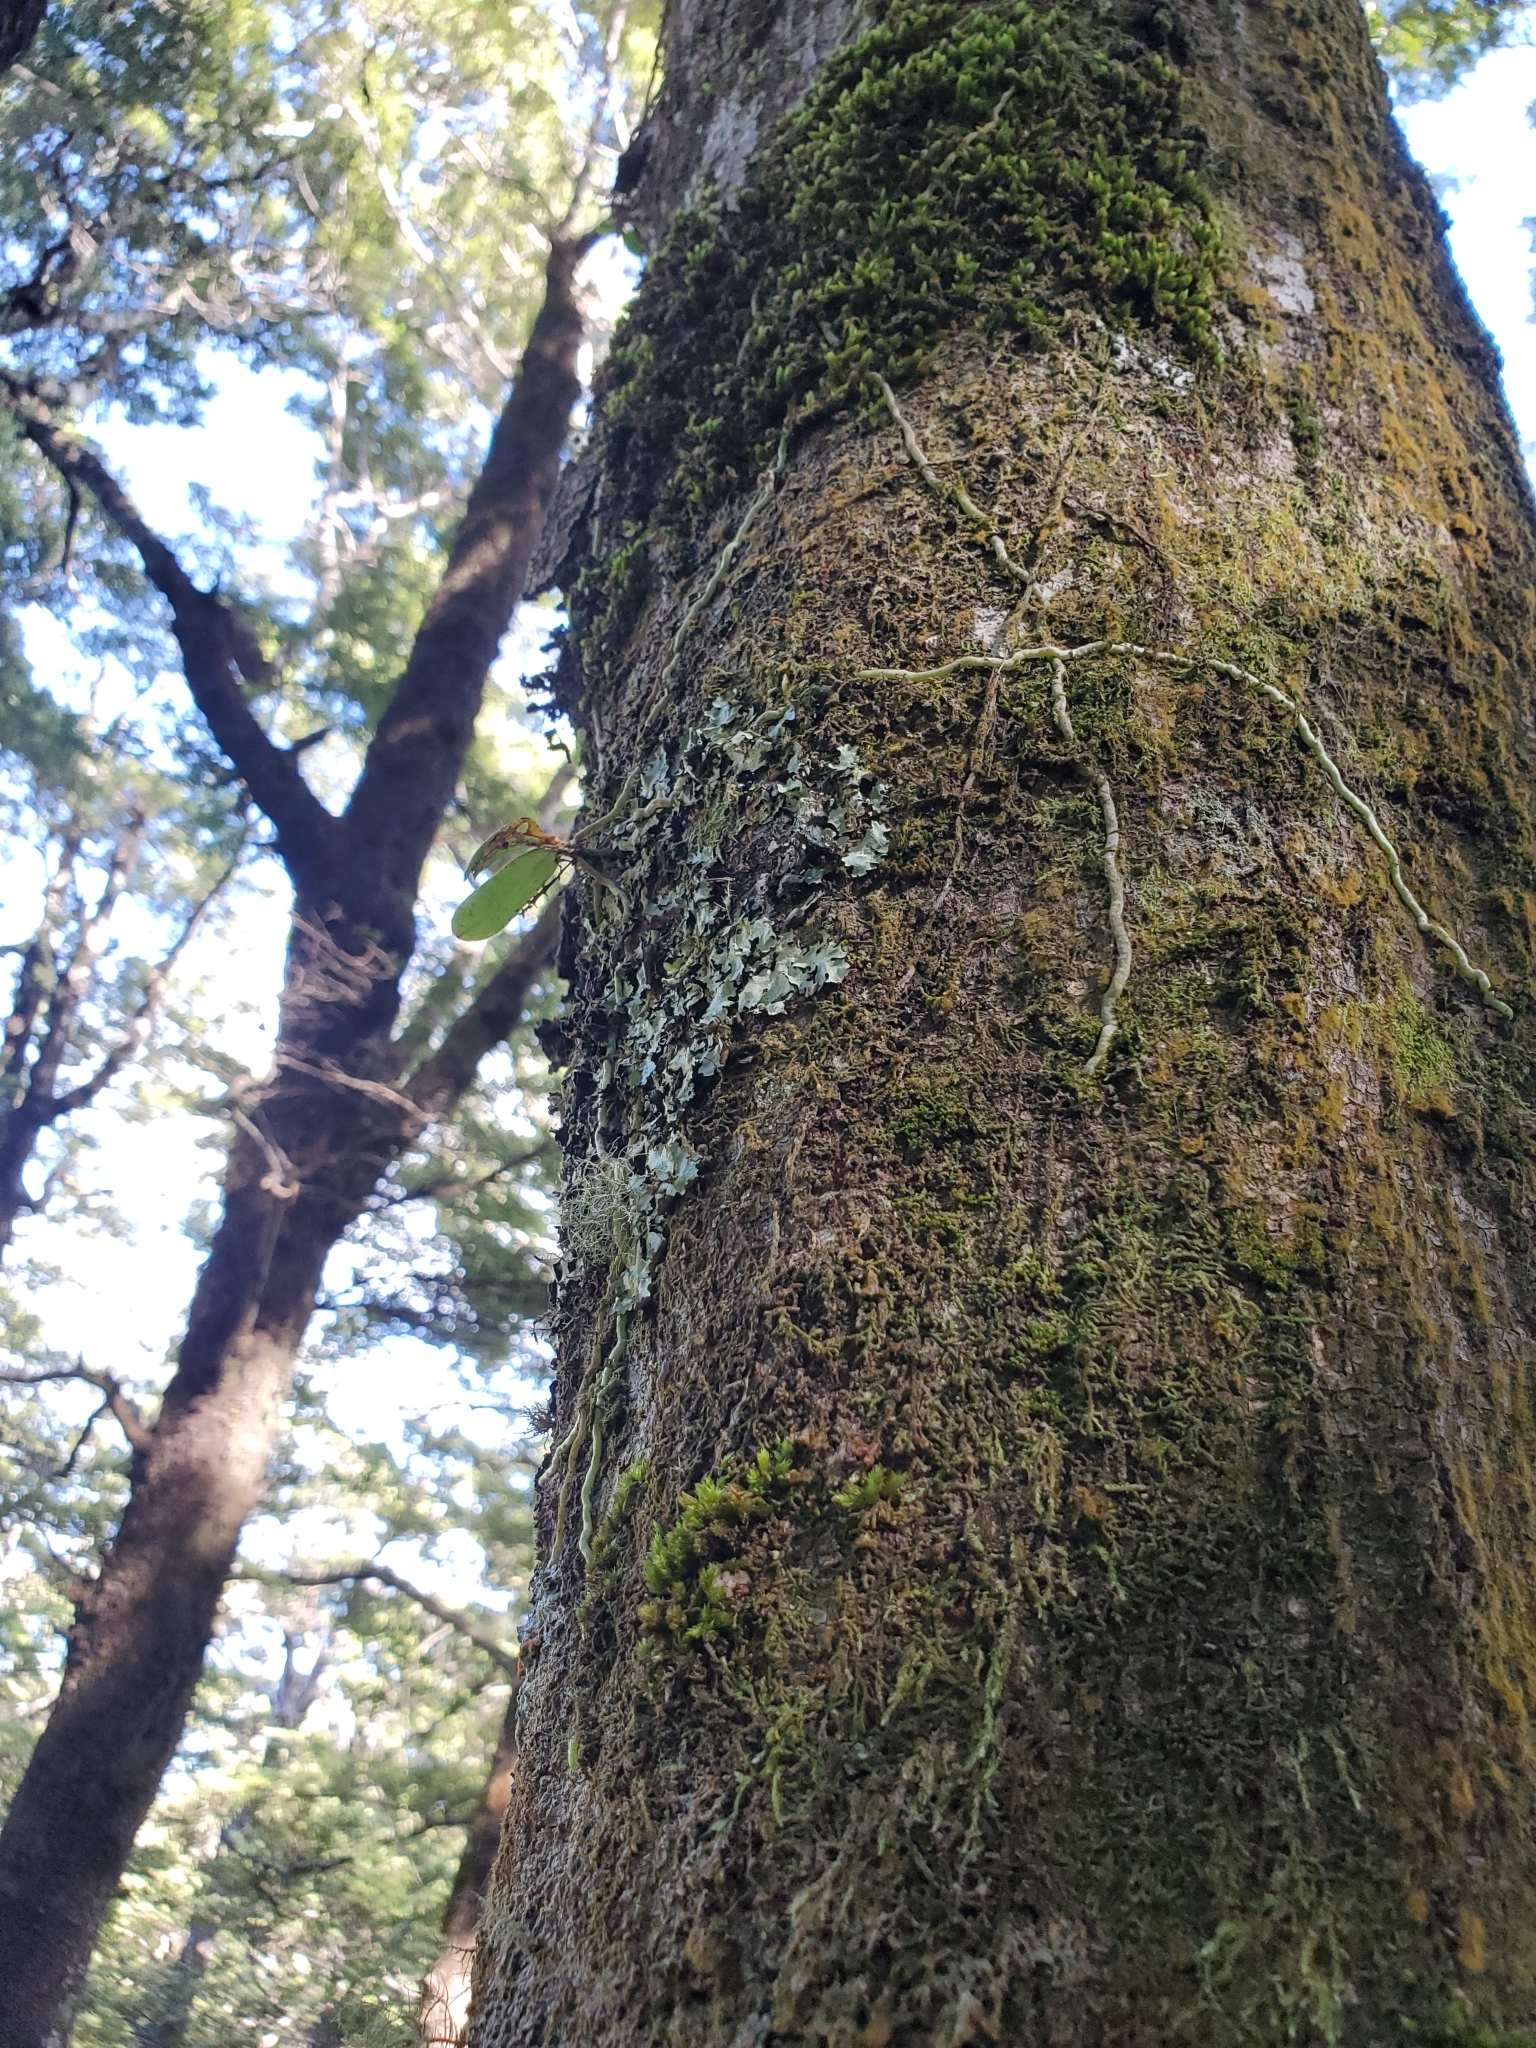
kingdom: Plantae
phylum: Tracheophyta
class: Liliopsida
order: Asparagales
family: Orchidaceae
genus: Drymoanthus
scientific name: Drymoanthus adversus
